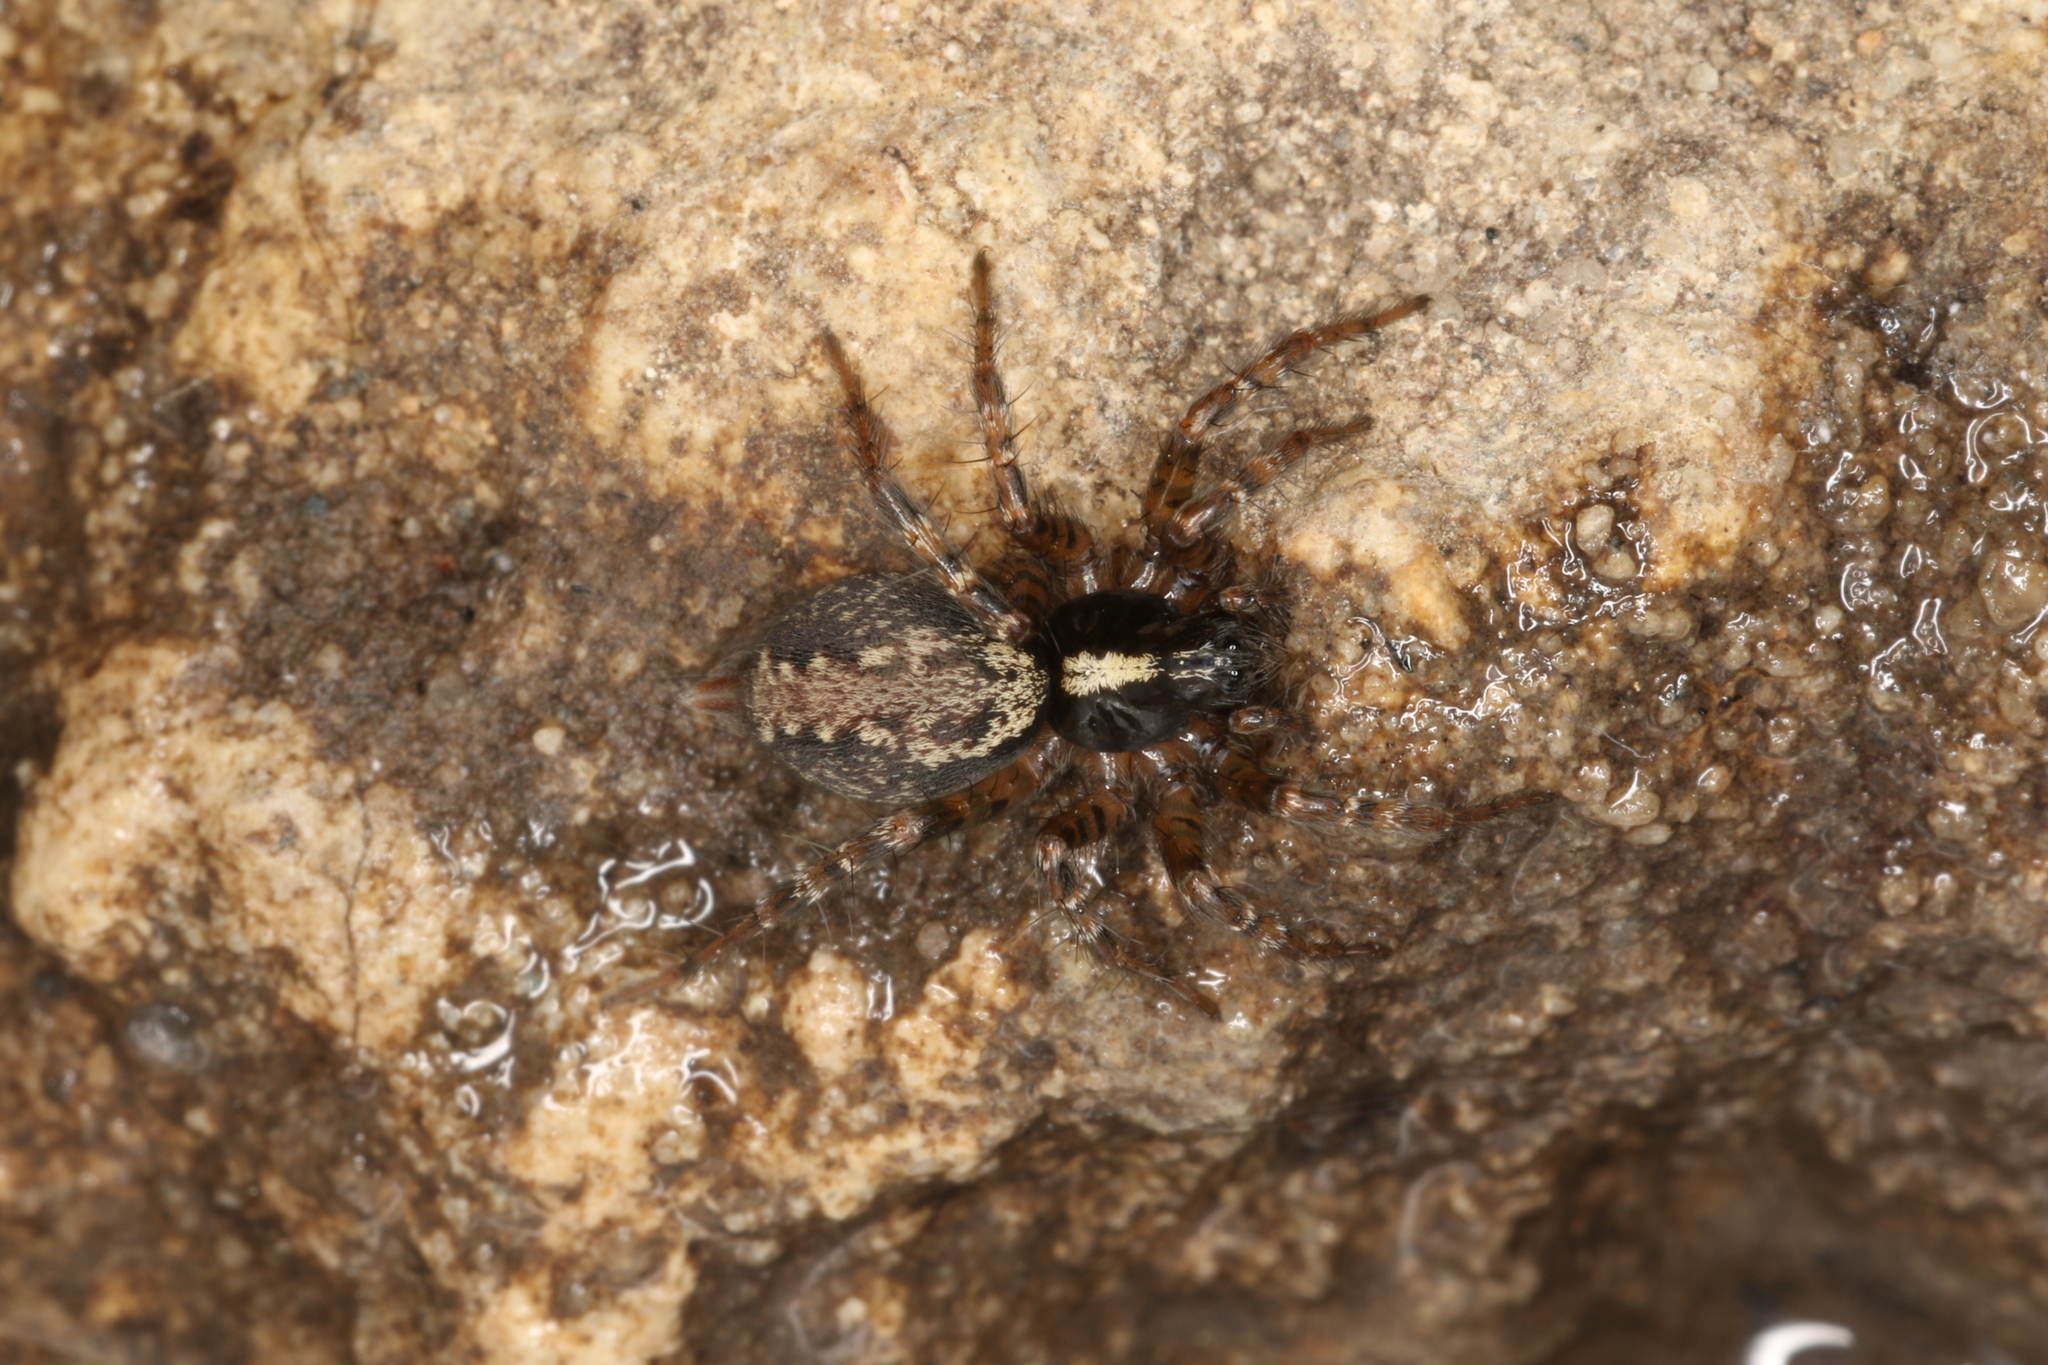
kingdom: Animalia
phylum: Arthropoda
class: Arachnida
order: Araneae
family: Agelenidae
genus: Textrix
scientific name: Textrix denticulata
